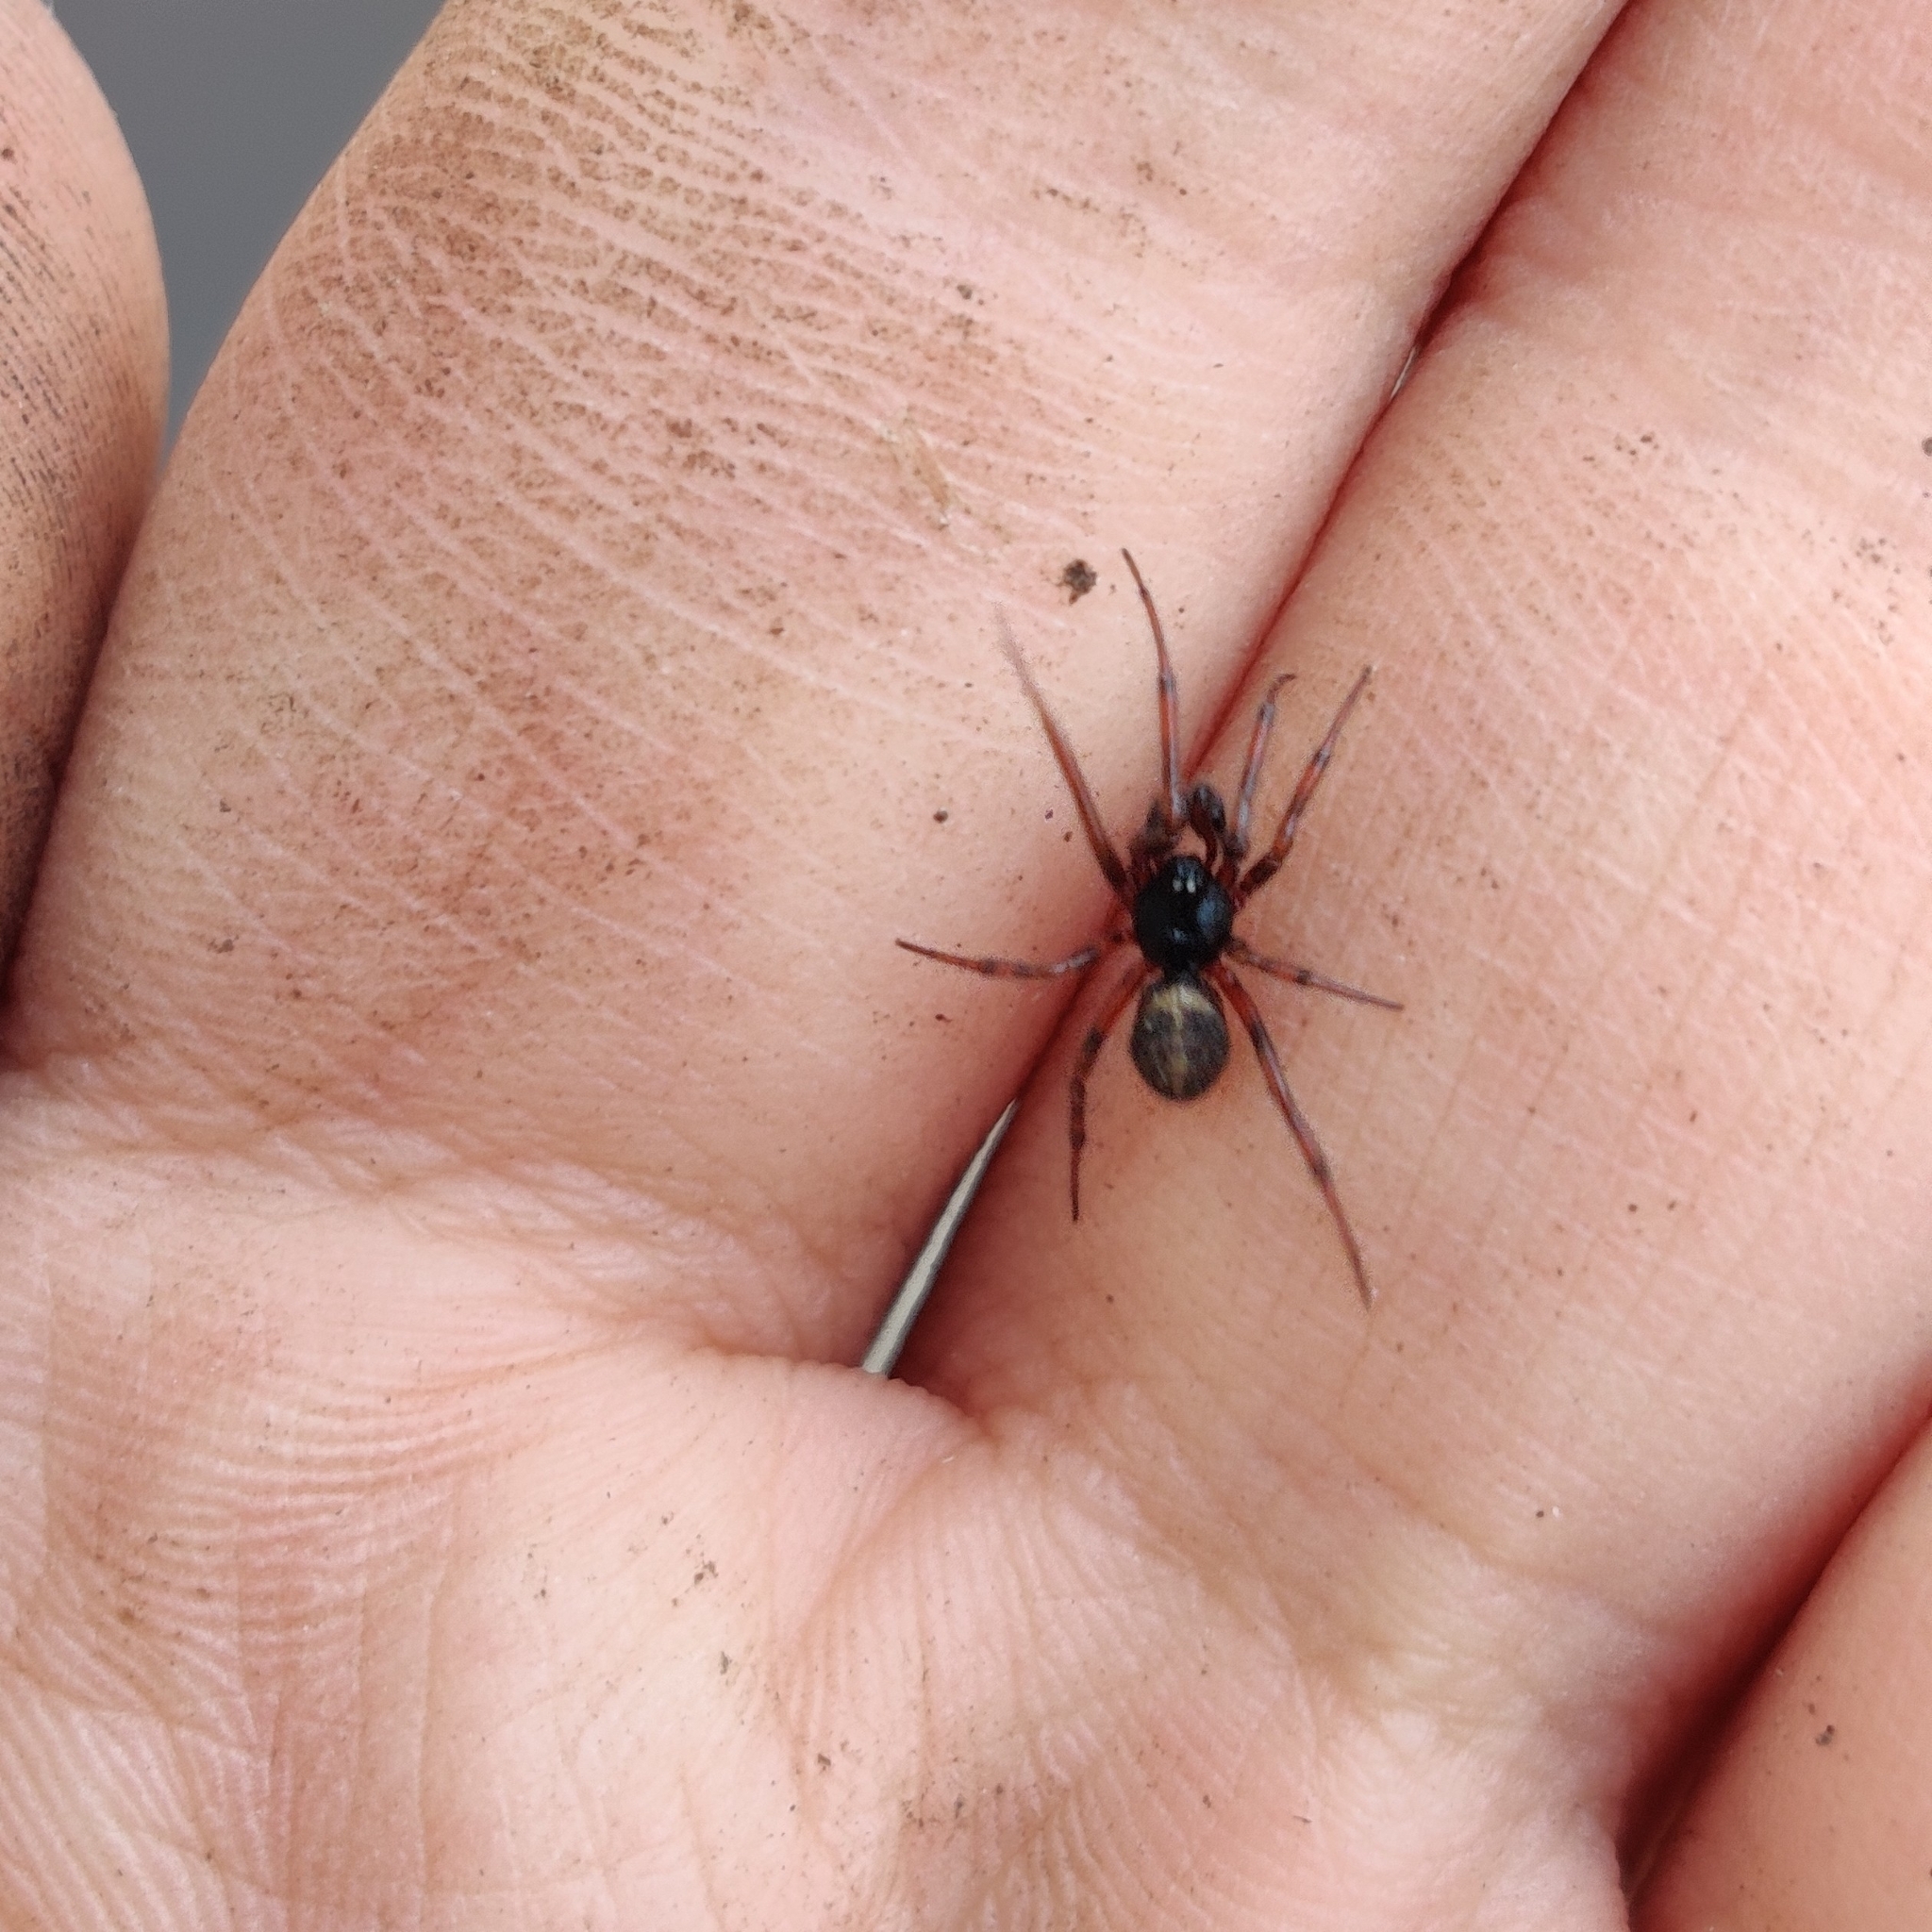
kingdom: Animalia
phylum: Arthropoda
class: Arachnida
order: Araneae
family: Theridiidae
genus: Steatoda
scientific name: Steatoda bipunctata
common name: False widow
